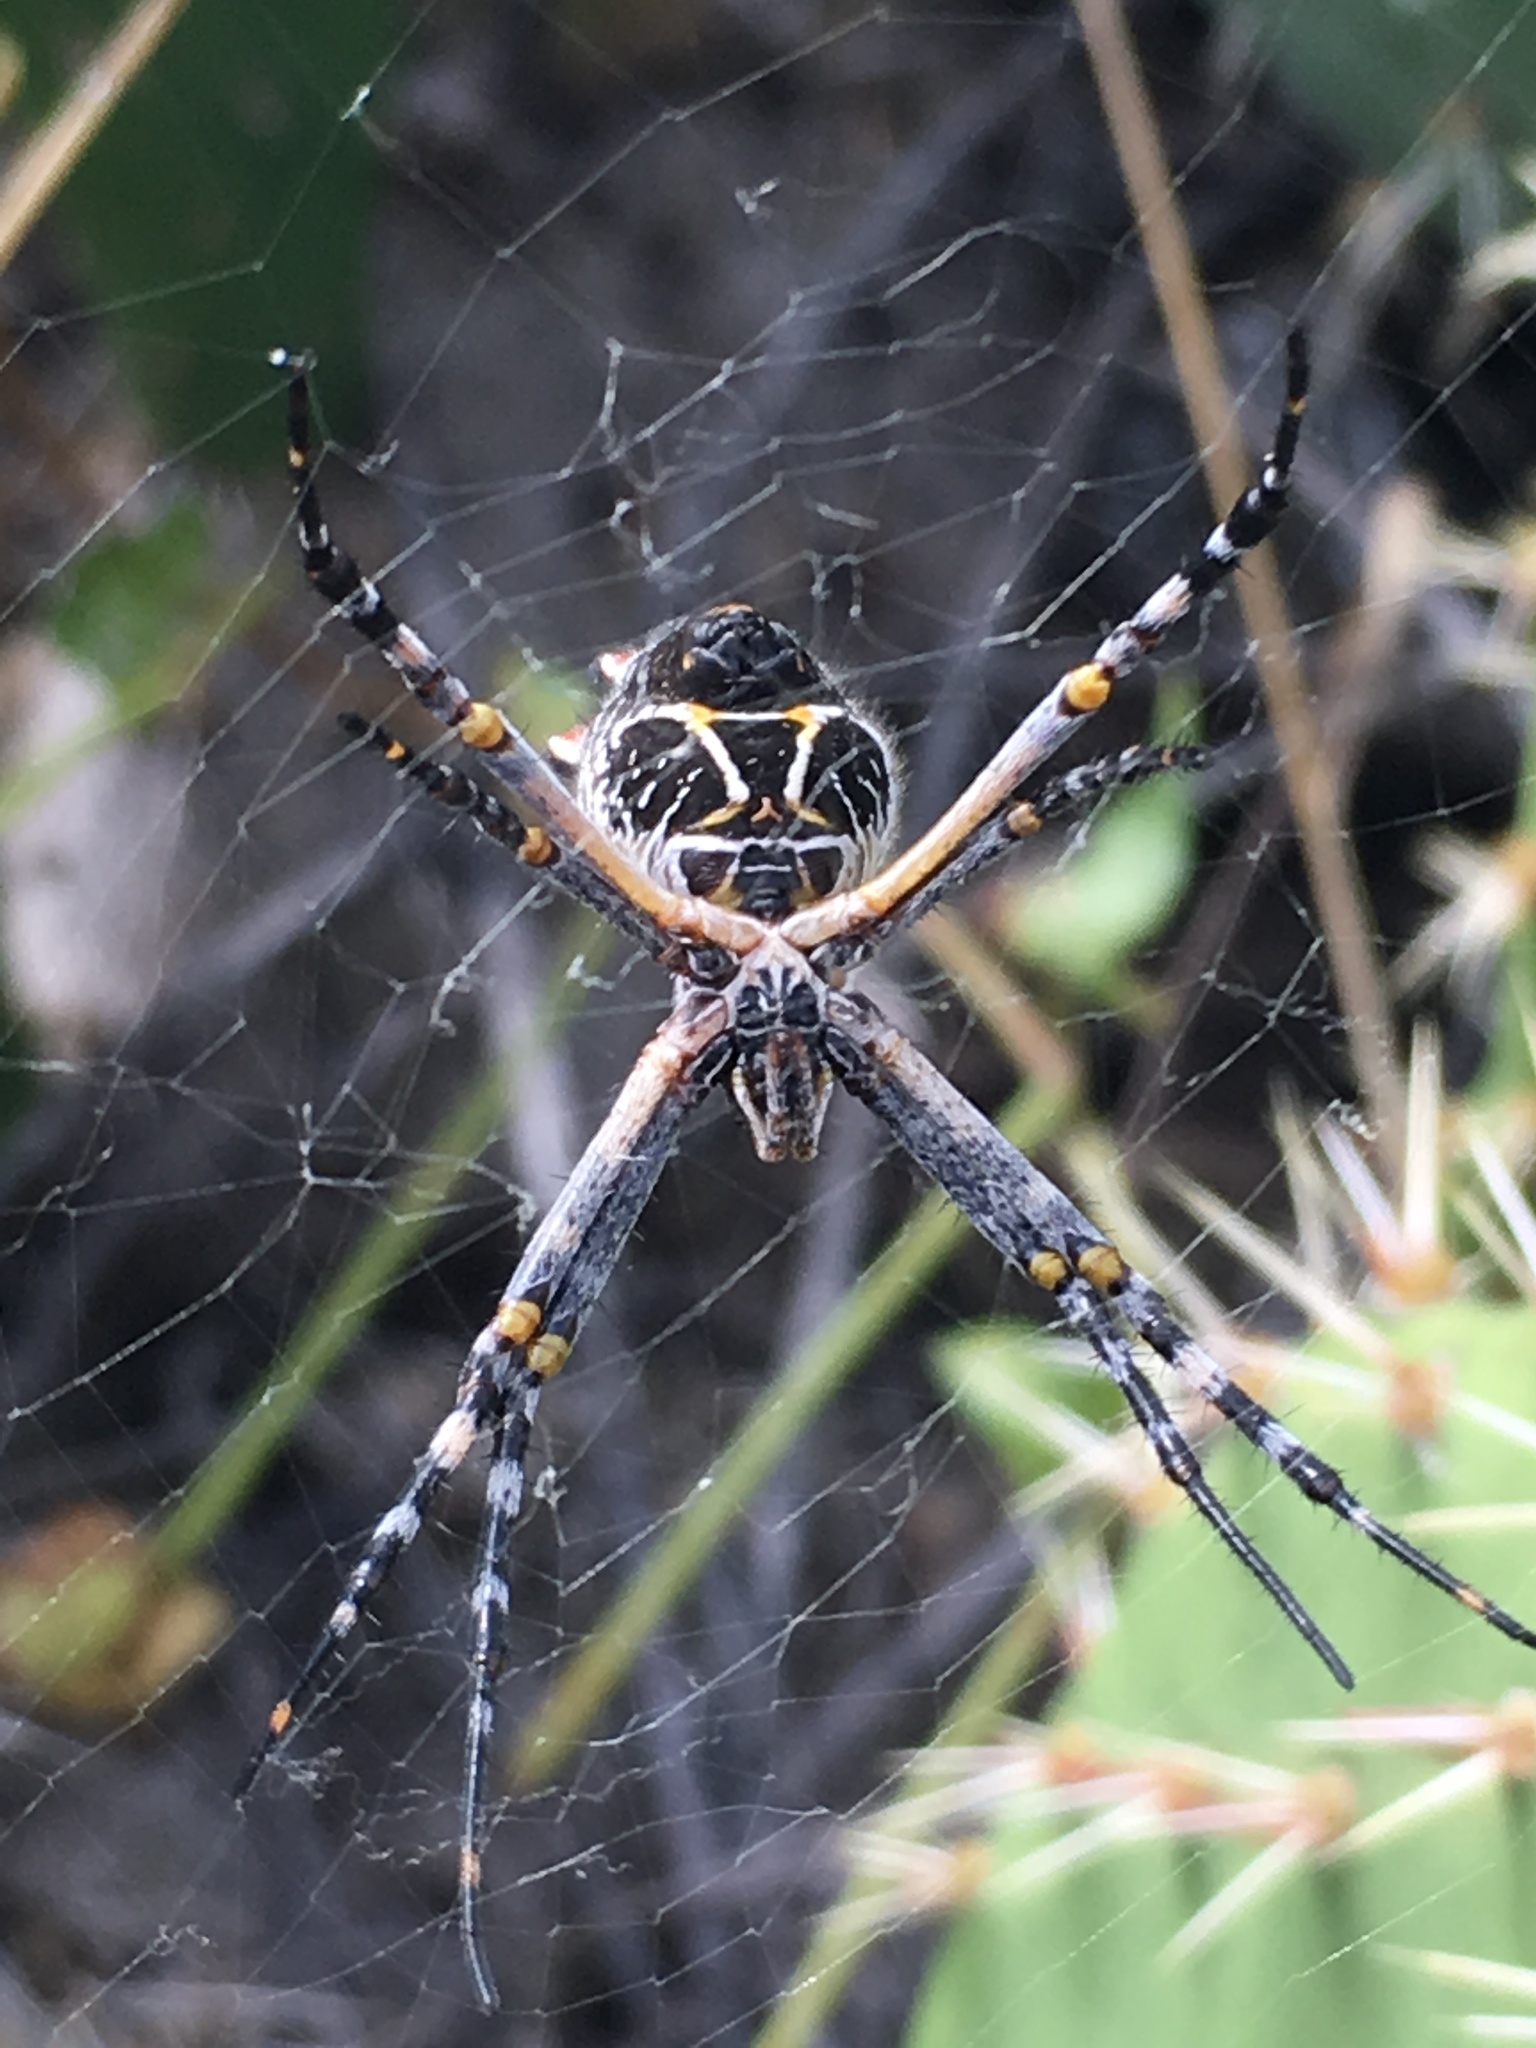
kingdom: Animalia
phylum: Arthropoda
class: Arachnida
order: Araneae
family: Araneidae
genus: Argiope
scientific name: Argiope argentata
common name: Orb weavers
